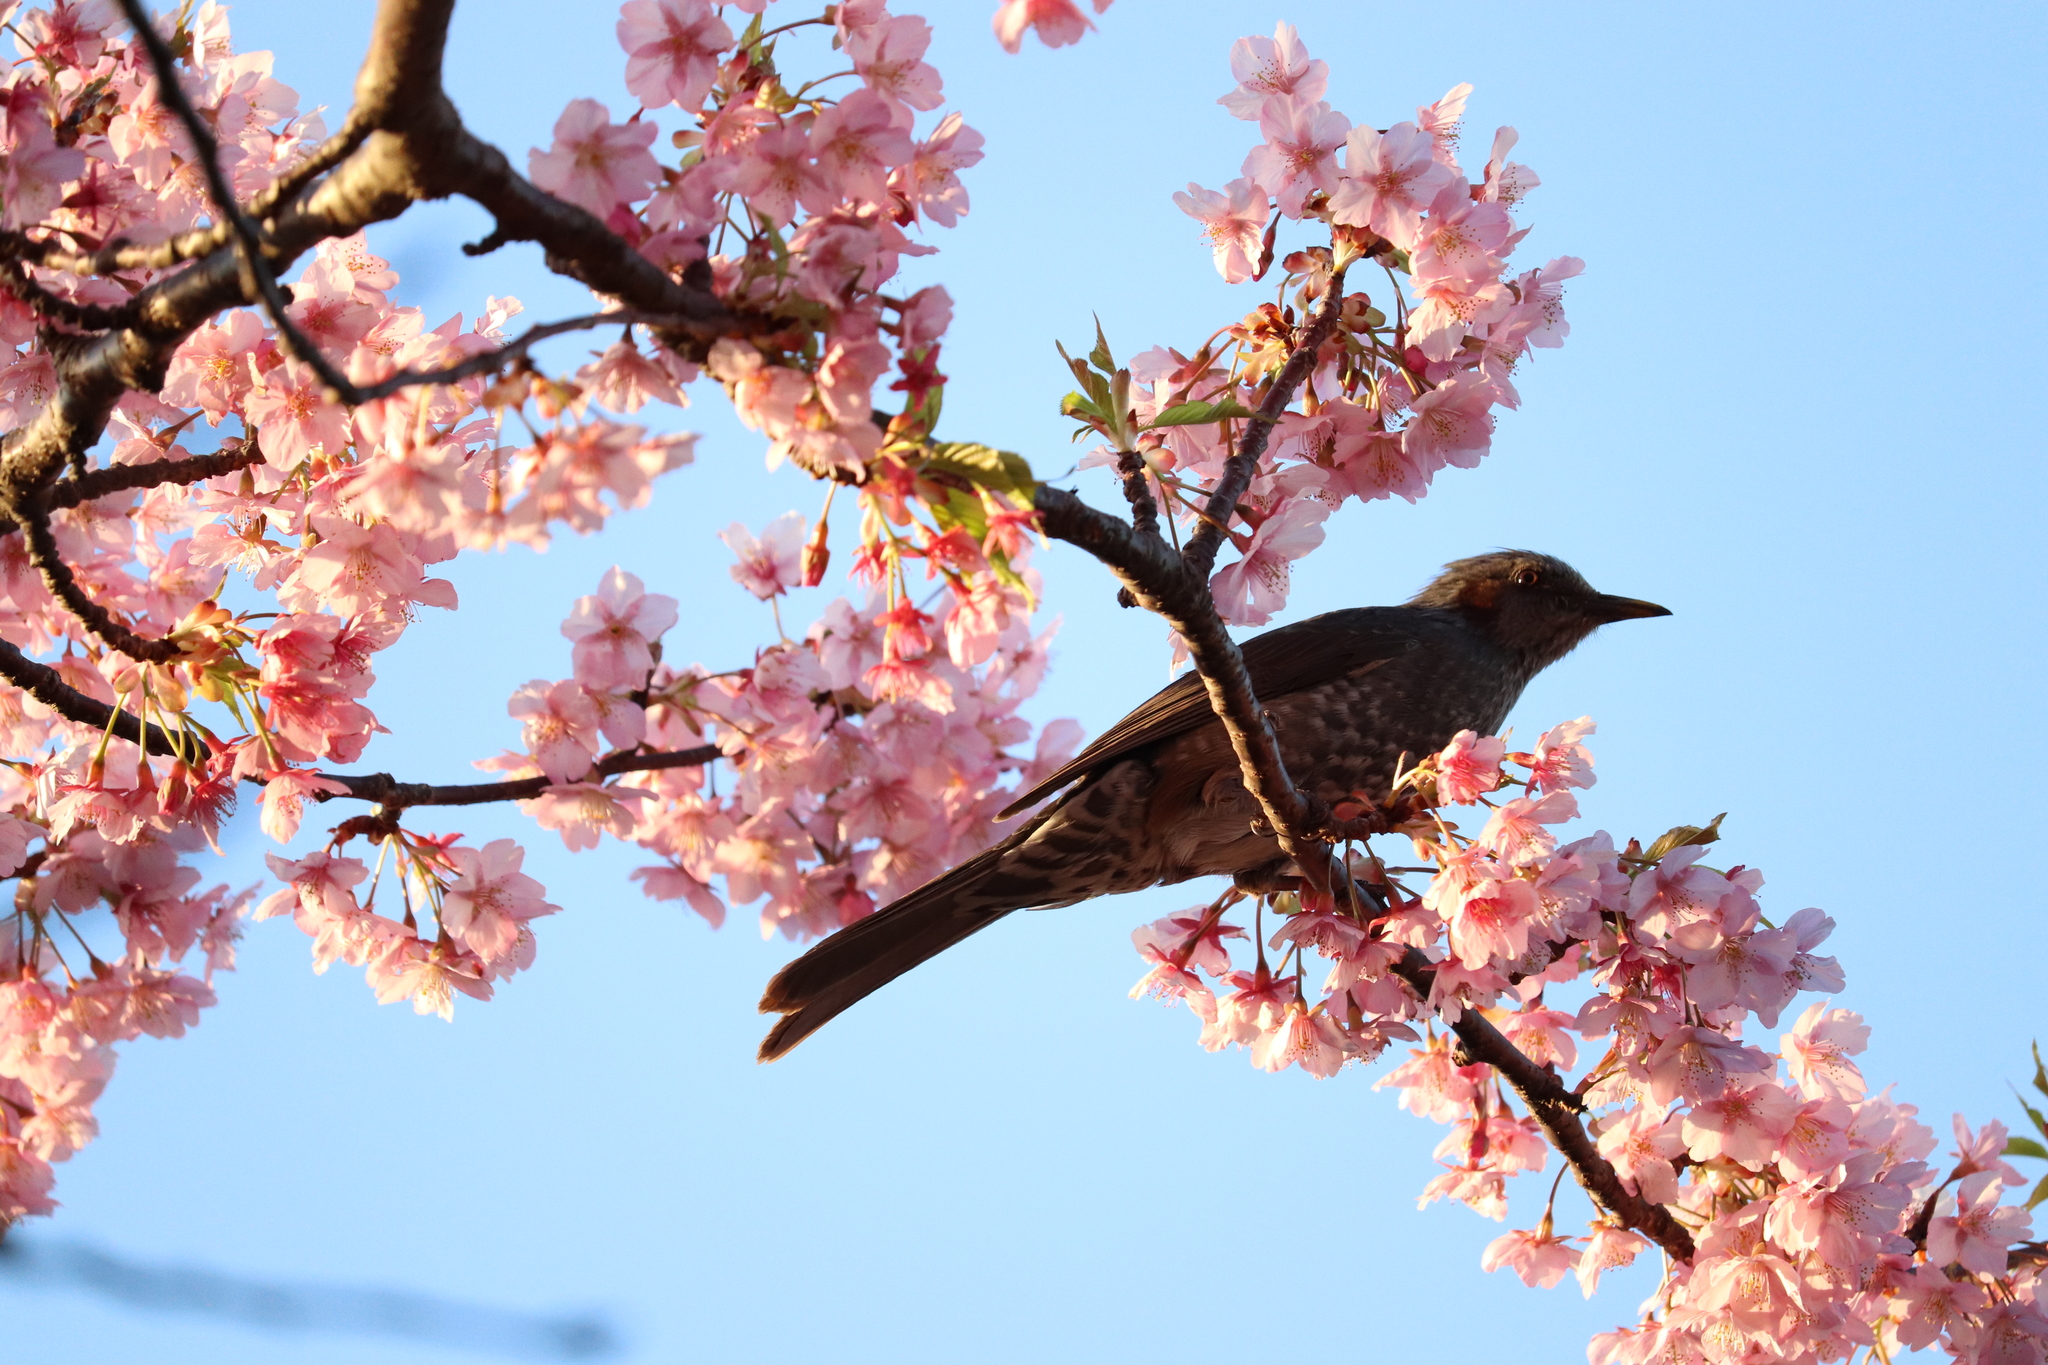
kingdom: Animalia
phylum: Chordata
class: Aves
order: Passeriformes
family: Pycnonotidae
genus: Hypsipetes
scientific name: Hypsipetes amaurotis
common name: Brown-eared bulbul
